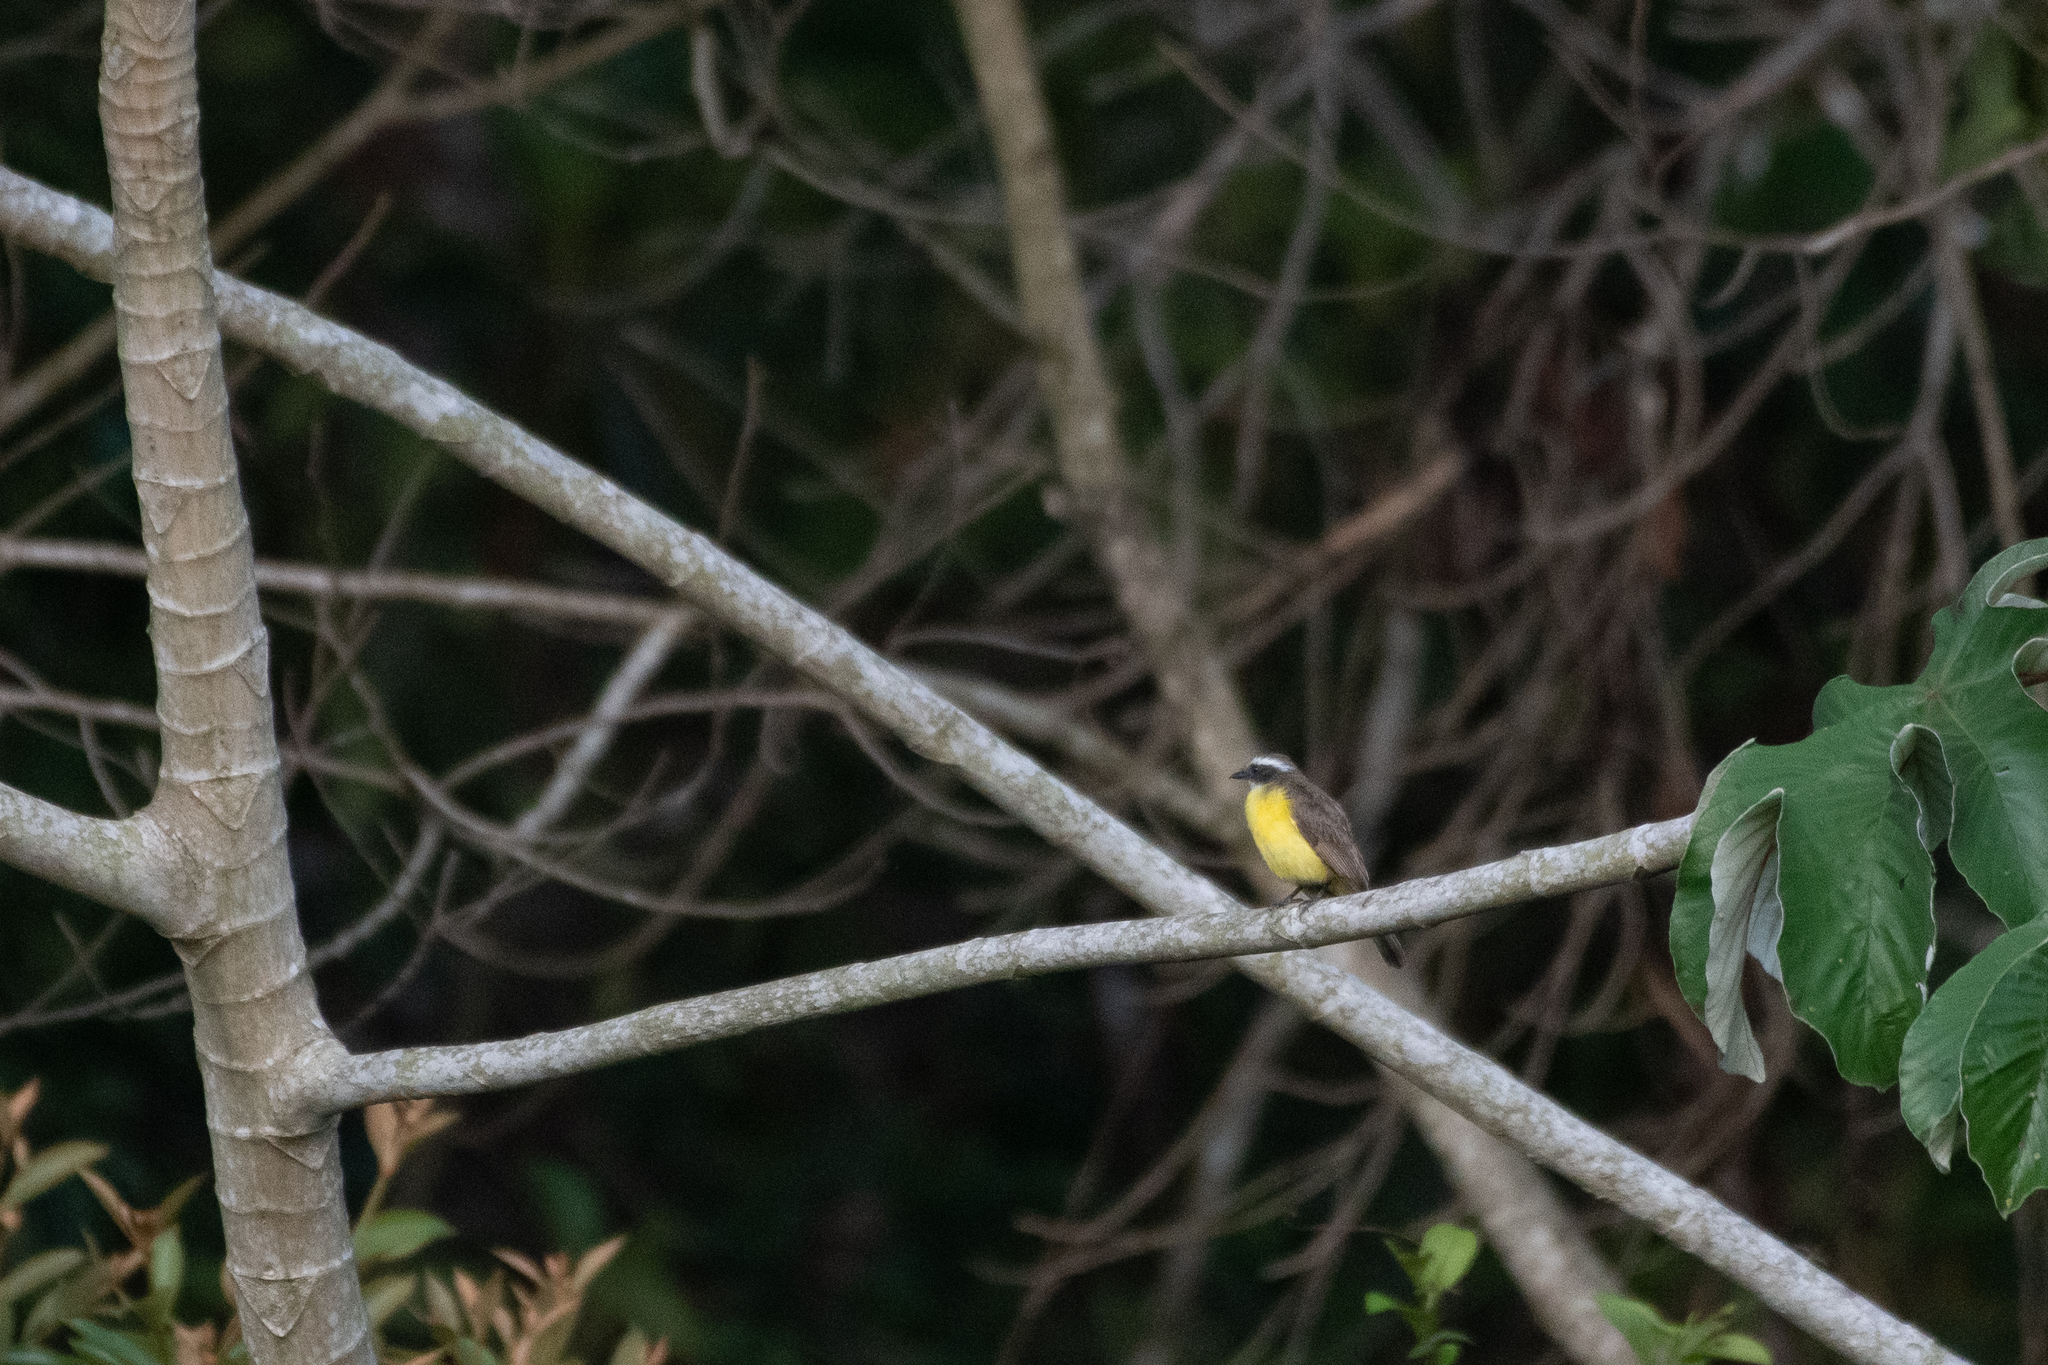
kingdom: Animalia
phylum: Chordata
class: Aves
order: Passeriformes
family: Tyrannidae
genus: Myiozetetes
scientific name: Myiozetetes similis
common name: Social flycatcher
